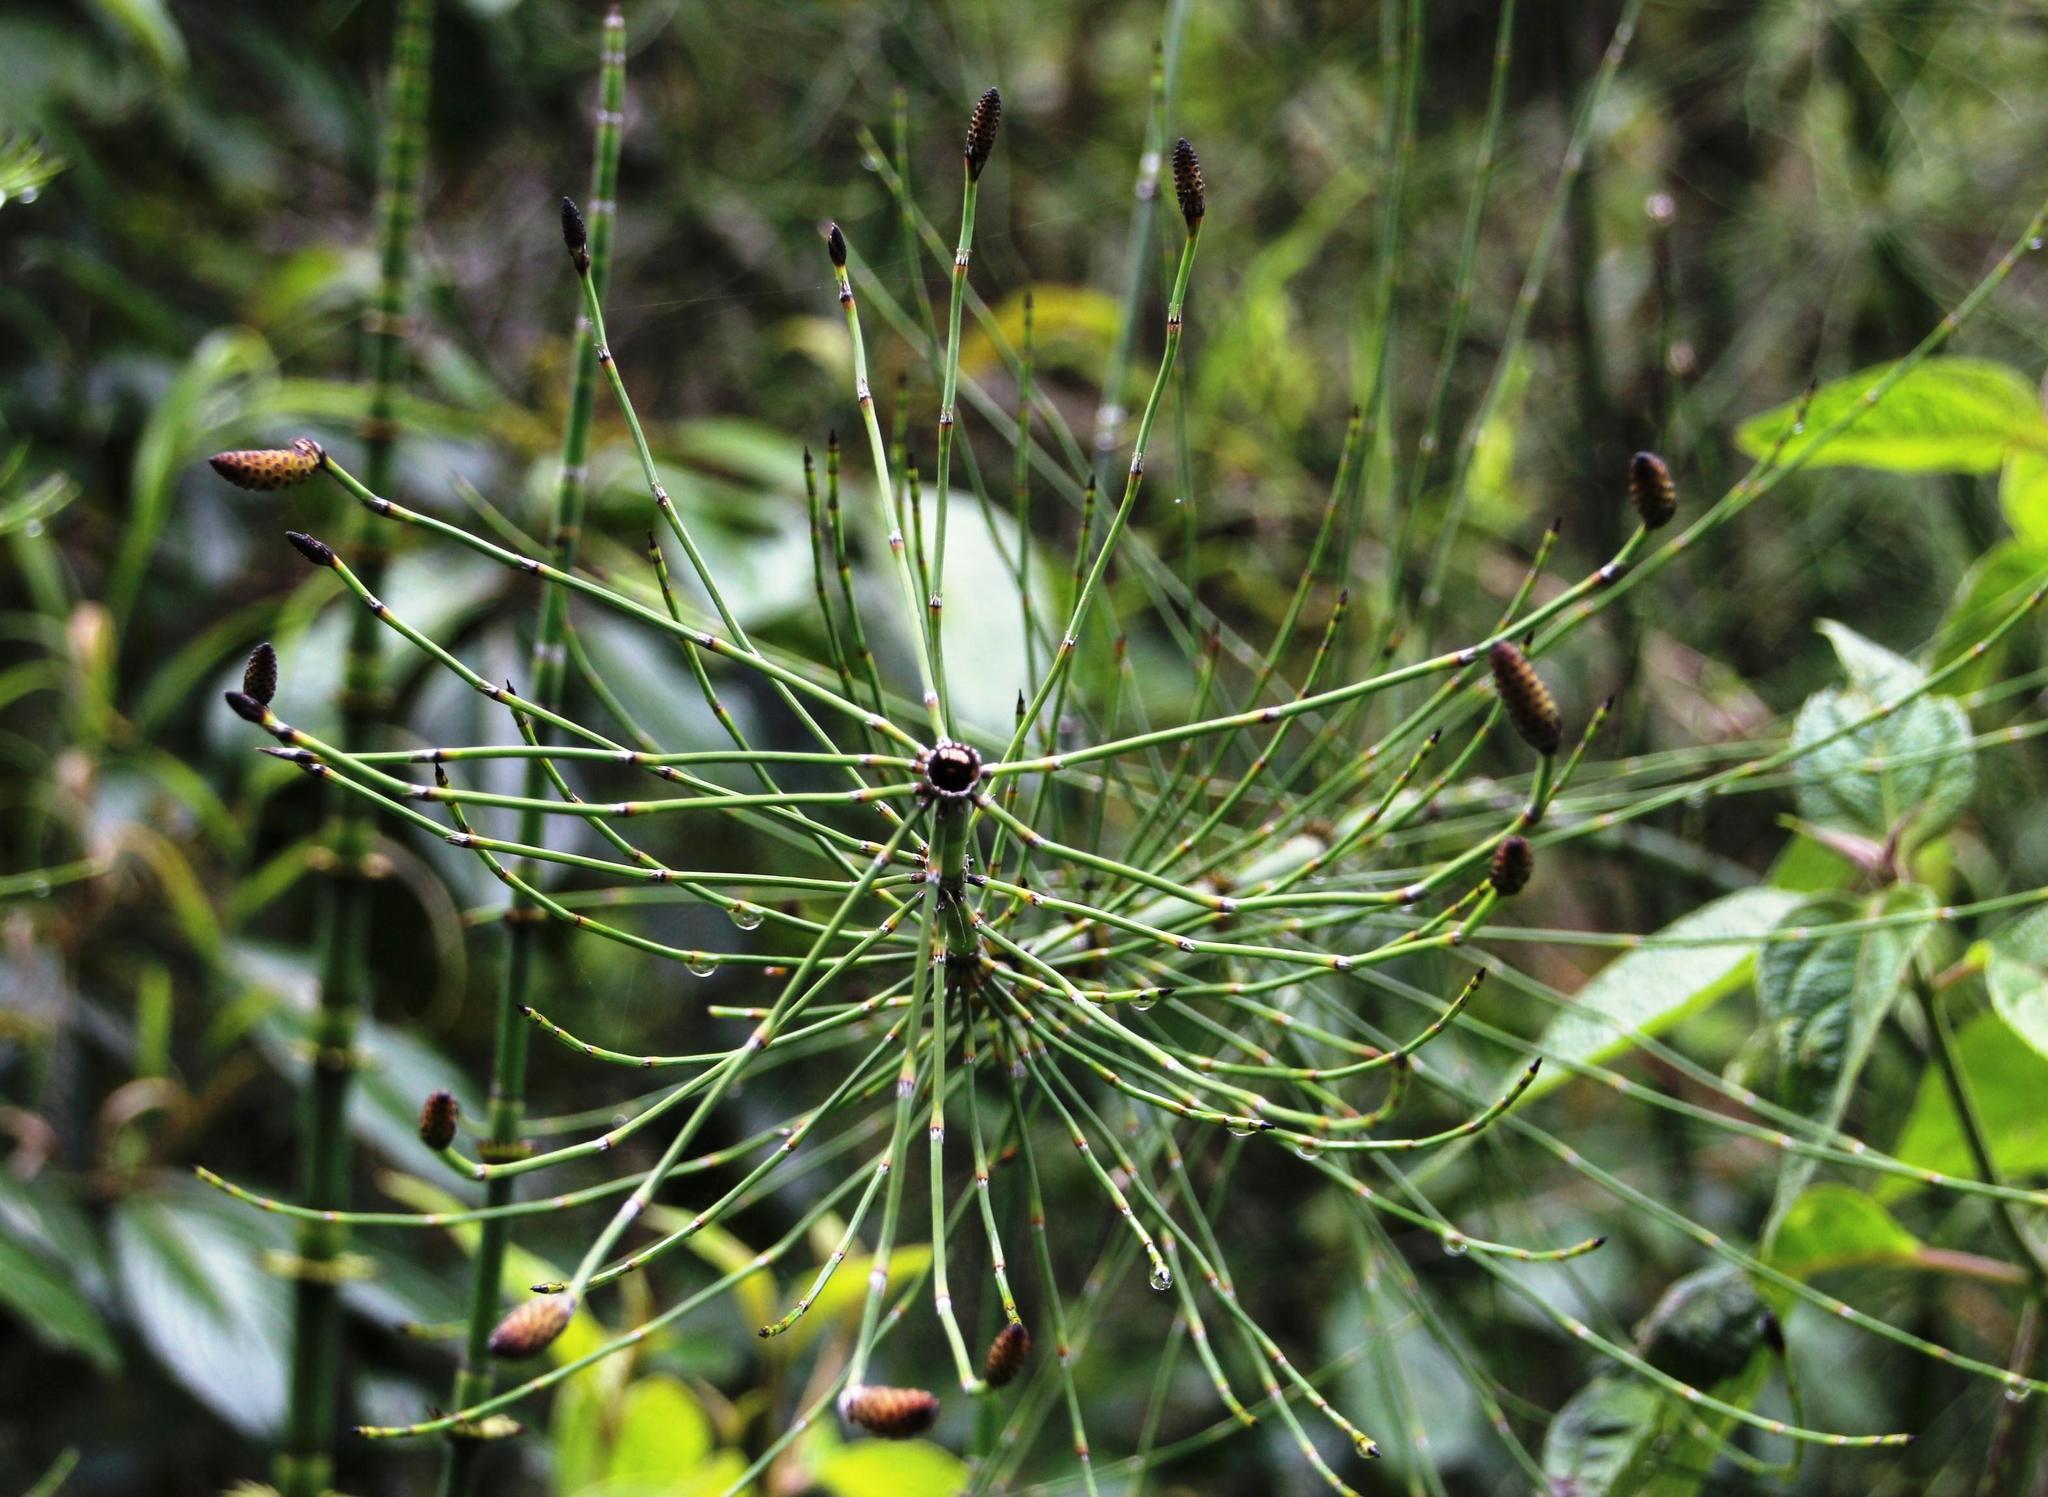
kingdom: Plantae
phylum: Tracheophyta
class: Polypodiopsida
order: Equisetales
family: Equisetaceae
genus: Equisetum
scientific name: Equisetum giganteum
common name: Giant horsetail
